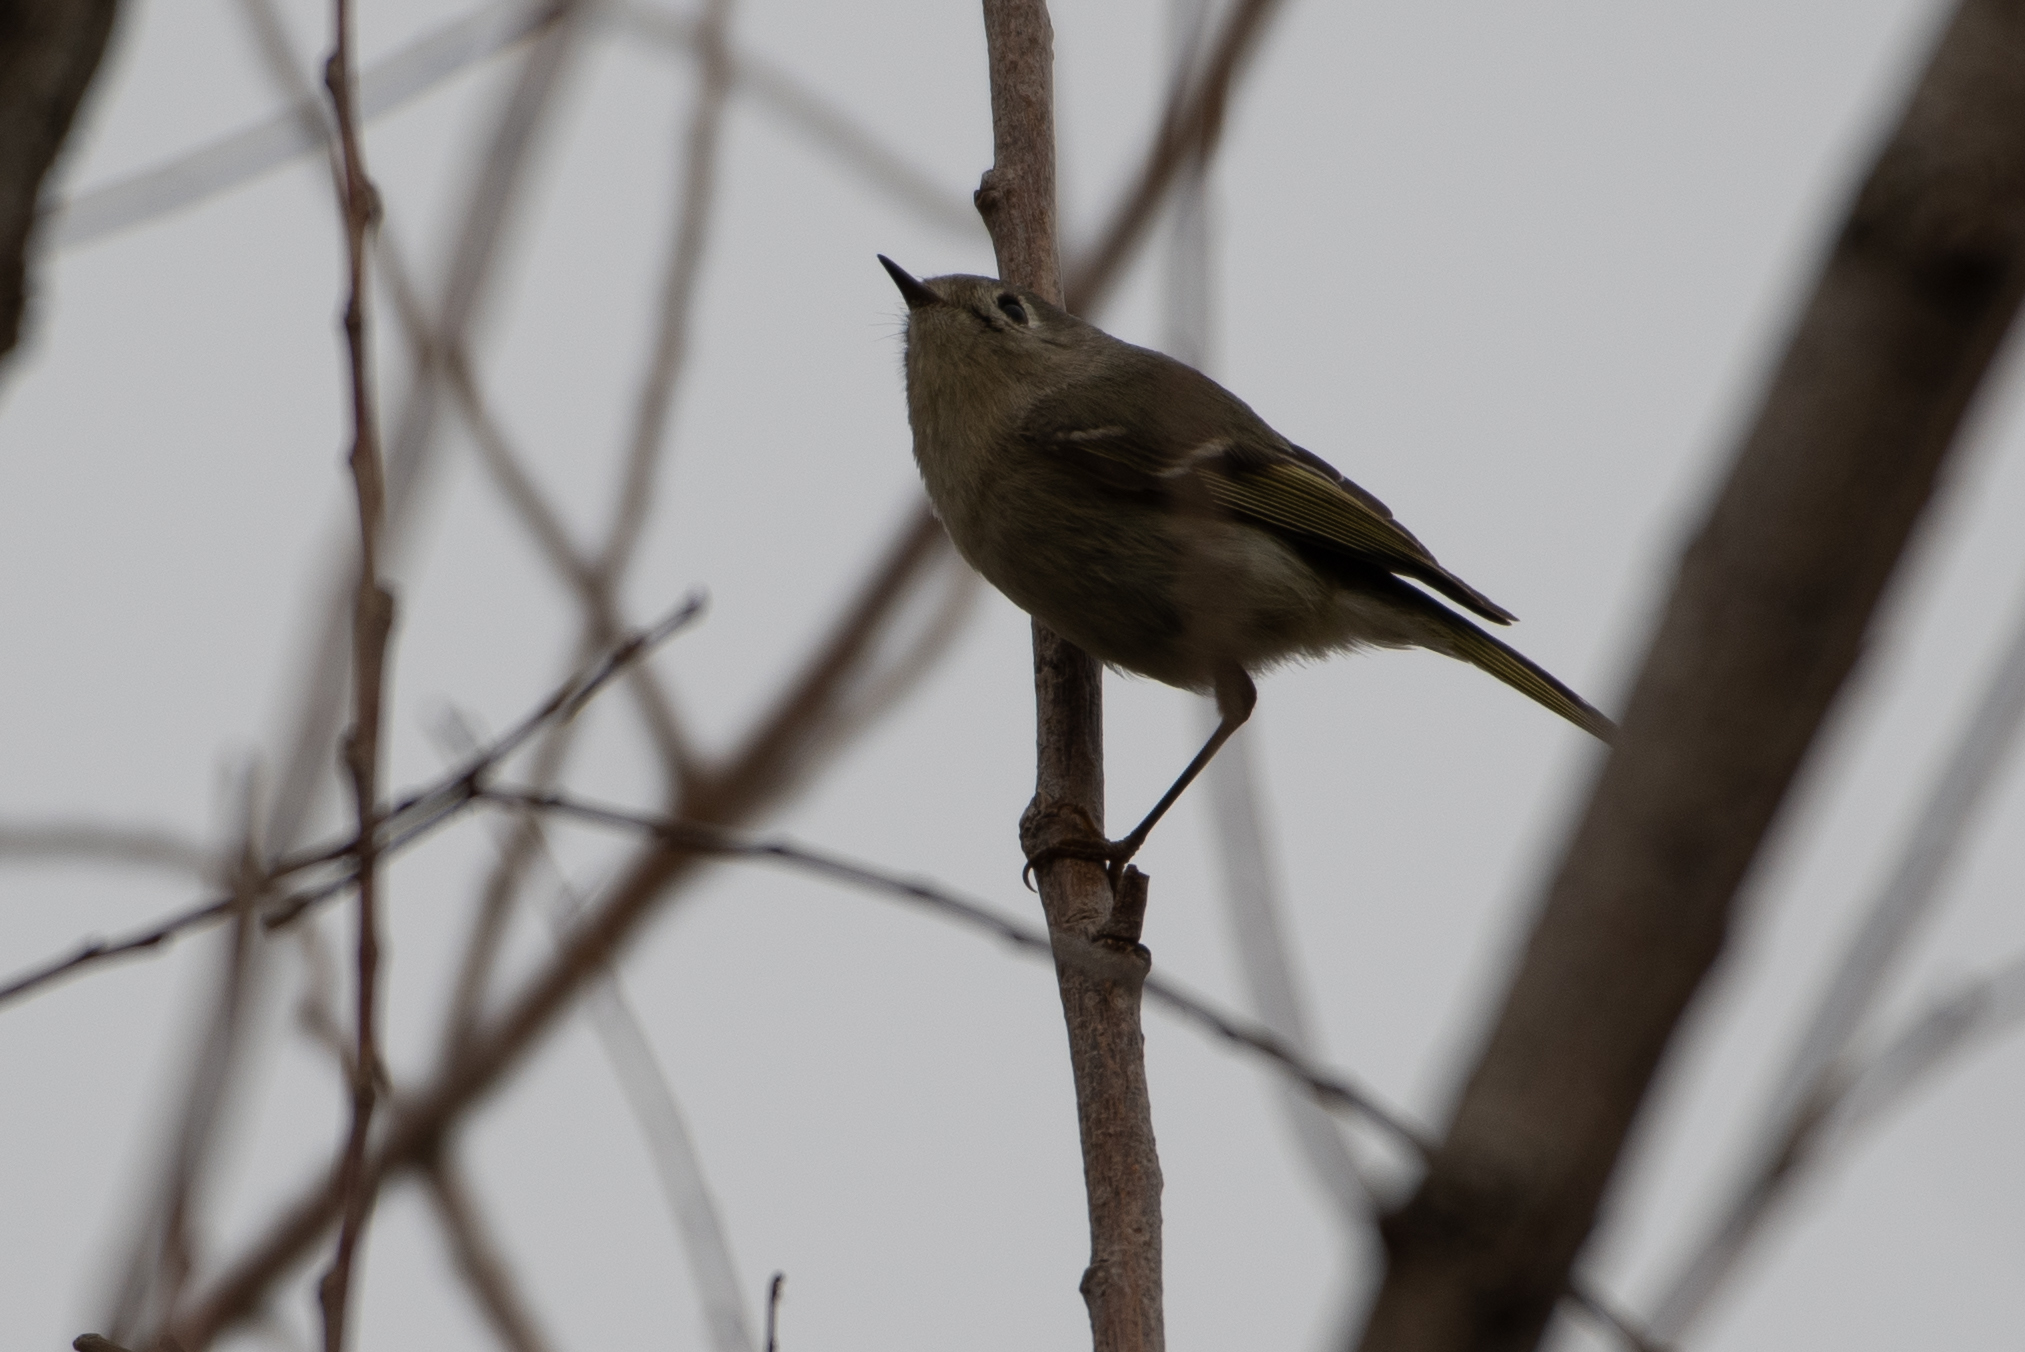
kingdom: Animalia
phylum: Chordata
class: Aves
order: Passeriformes
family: Regulidae
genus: Regulus
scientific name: Regulus calendula
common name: Ruby-crowned kinglet
